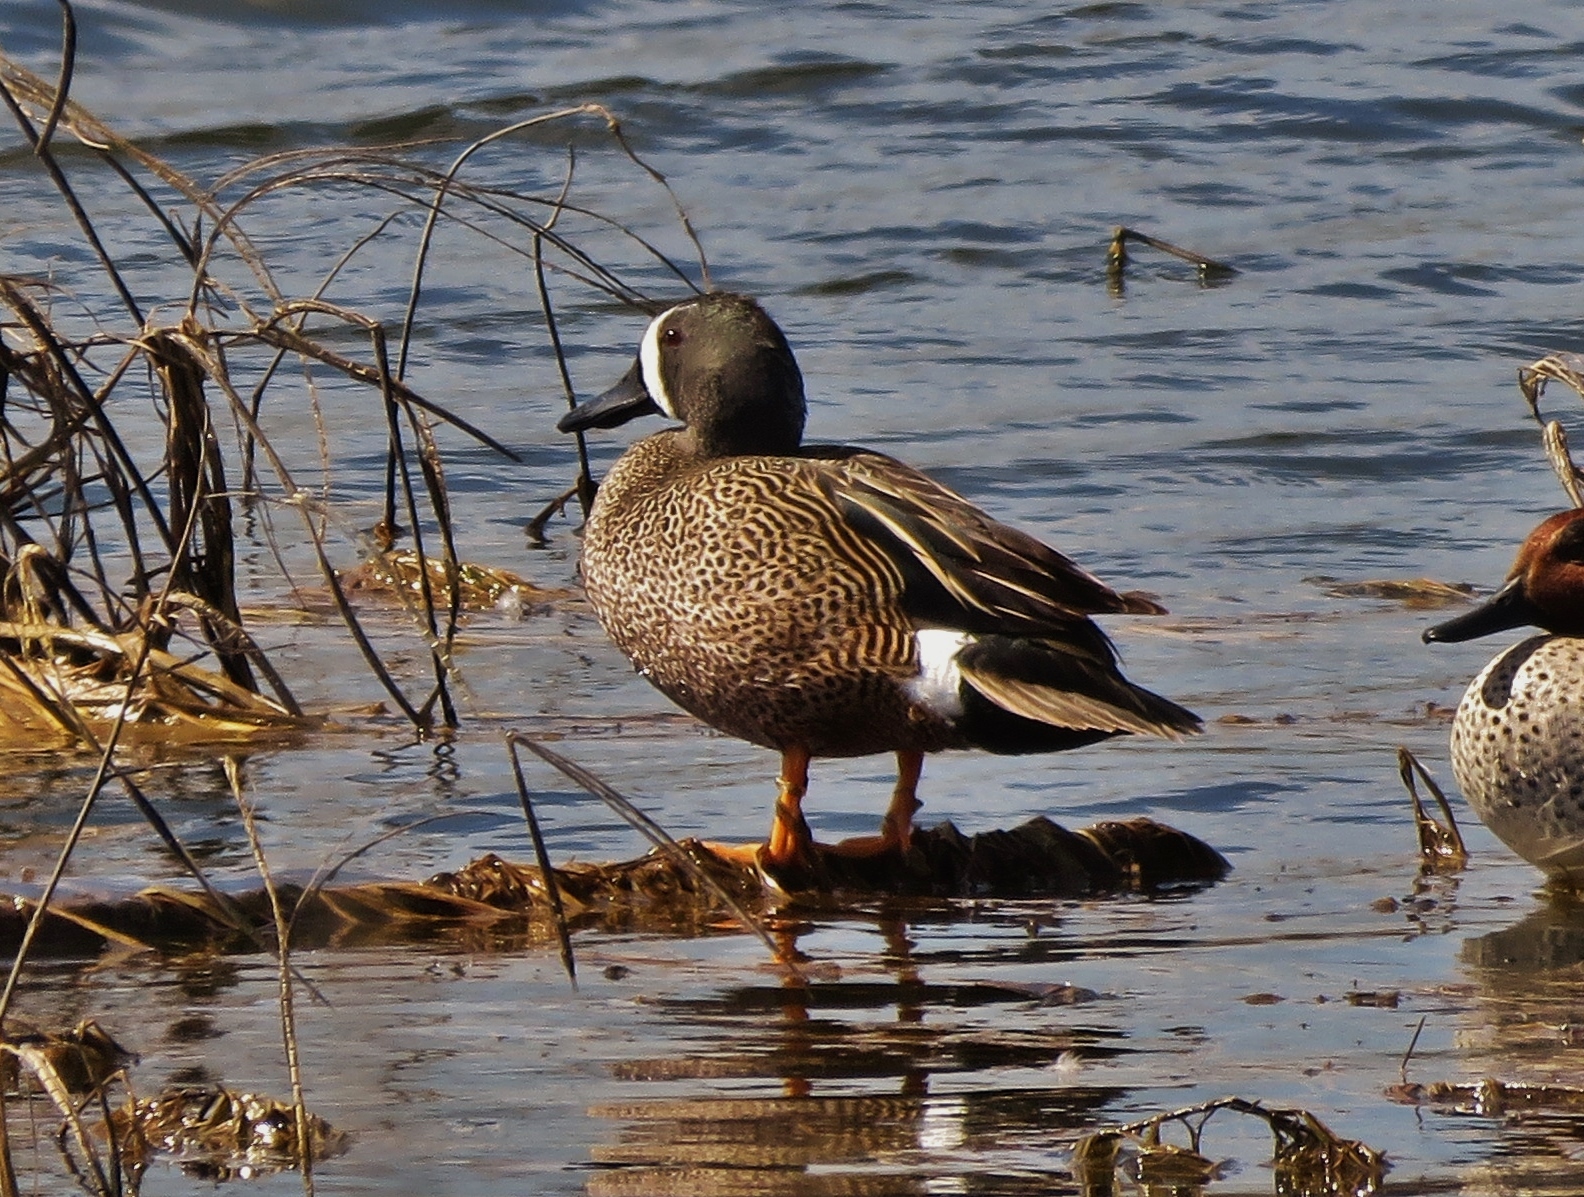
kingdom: Animalia
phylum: Chordata
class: Aves
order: Anseriformes
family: Anatidae
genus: Spatula
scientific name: Spatula discors
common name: Blue-winged teal
